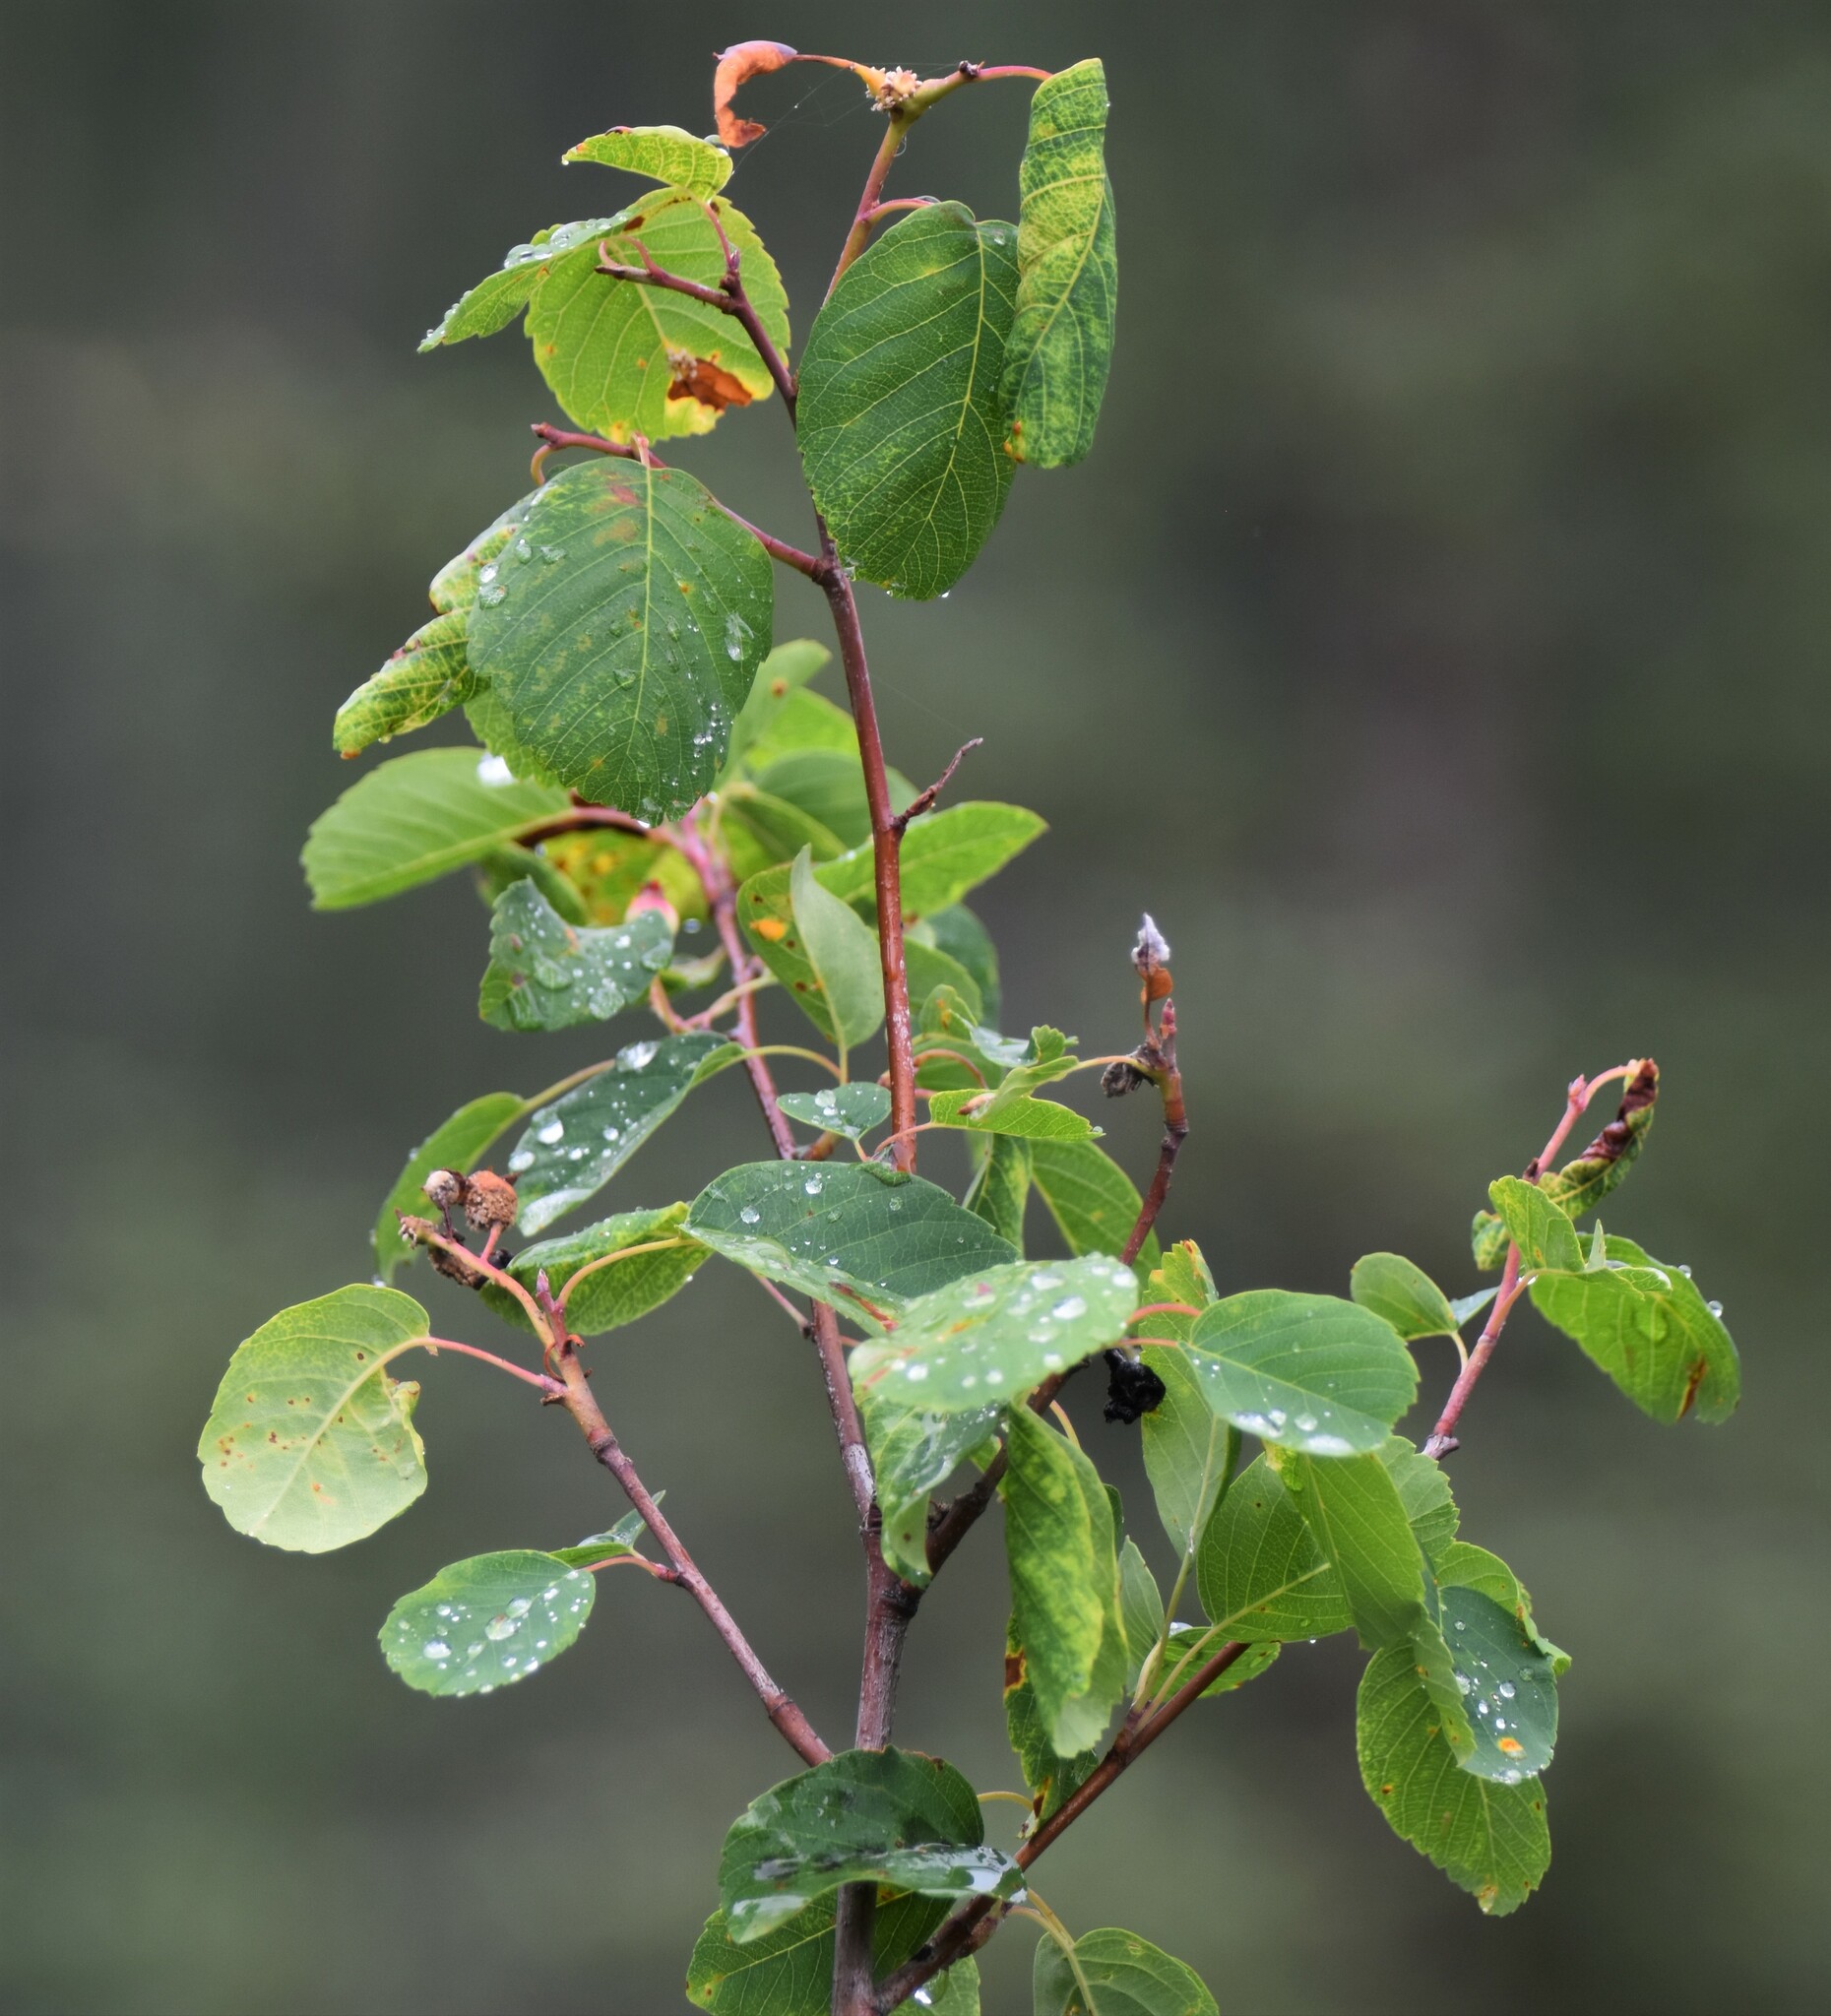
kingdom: Plantae
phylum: Tracheophyta
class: Magnoliopsida
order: Rosales
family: Rosaceae
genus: Amelanchier
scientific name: Amelanchier alnifolia
